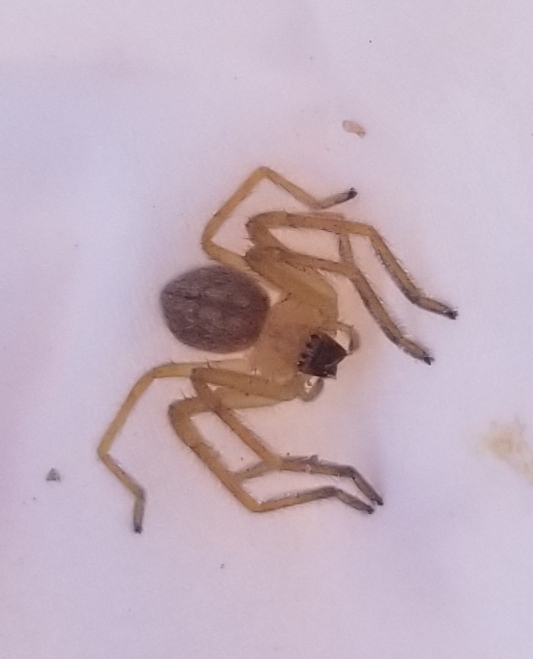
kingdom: Animalia
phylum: Arthropoda
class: Arachnida
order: Araneae
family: Sparassidae
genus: Olios
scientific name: Olios giganteus
